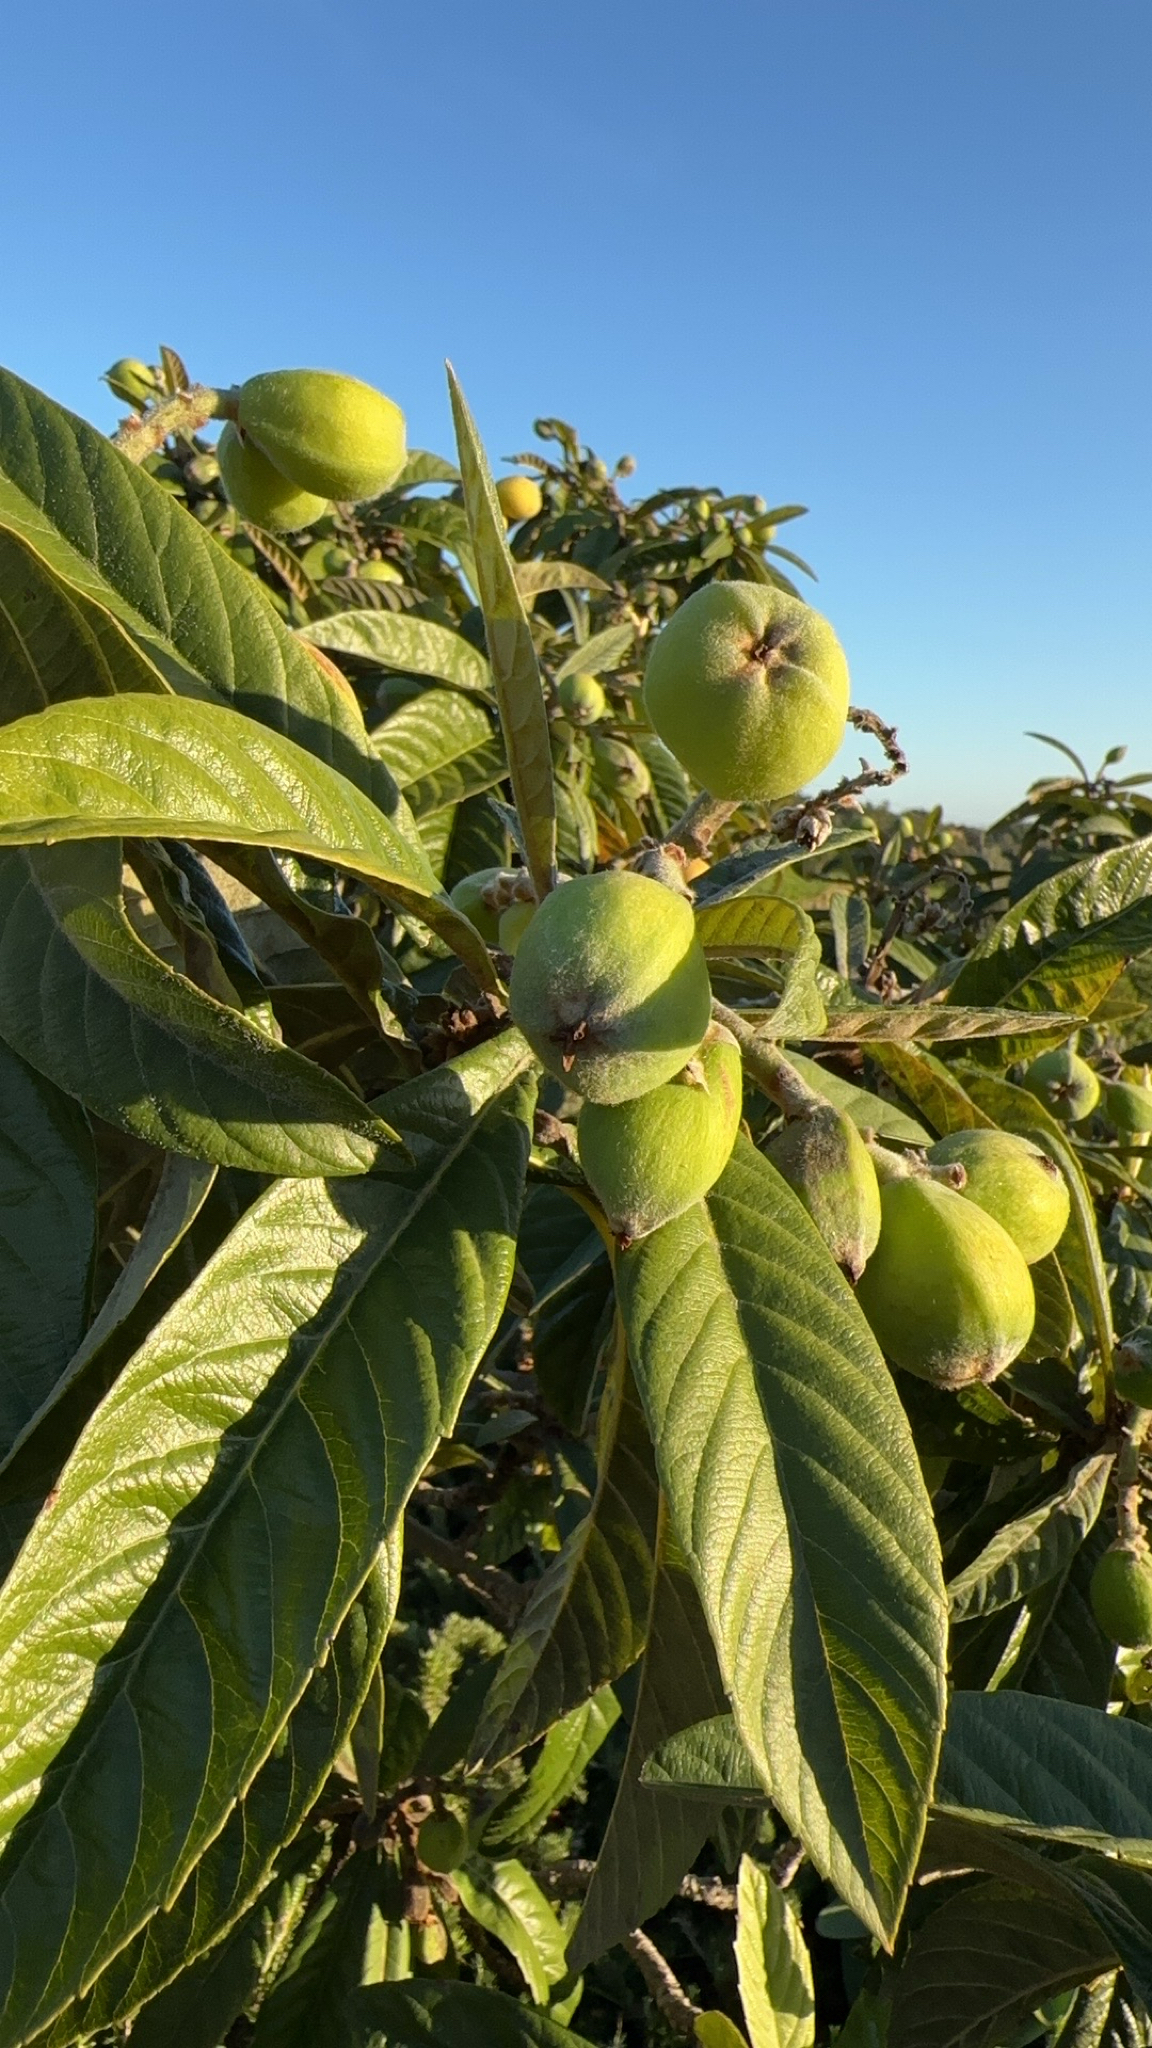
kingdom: Plantae
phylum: Tracheophyta
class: Magnoliopsida
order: Rosales
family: Rosaceae
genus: Rhaphiolepis
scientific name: Rhaphiolepis bibas
